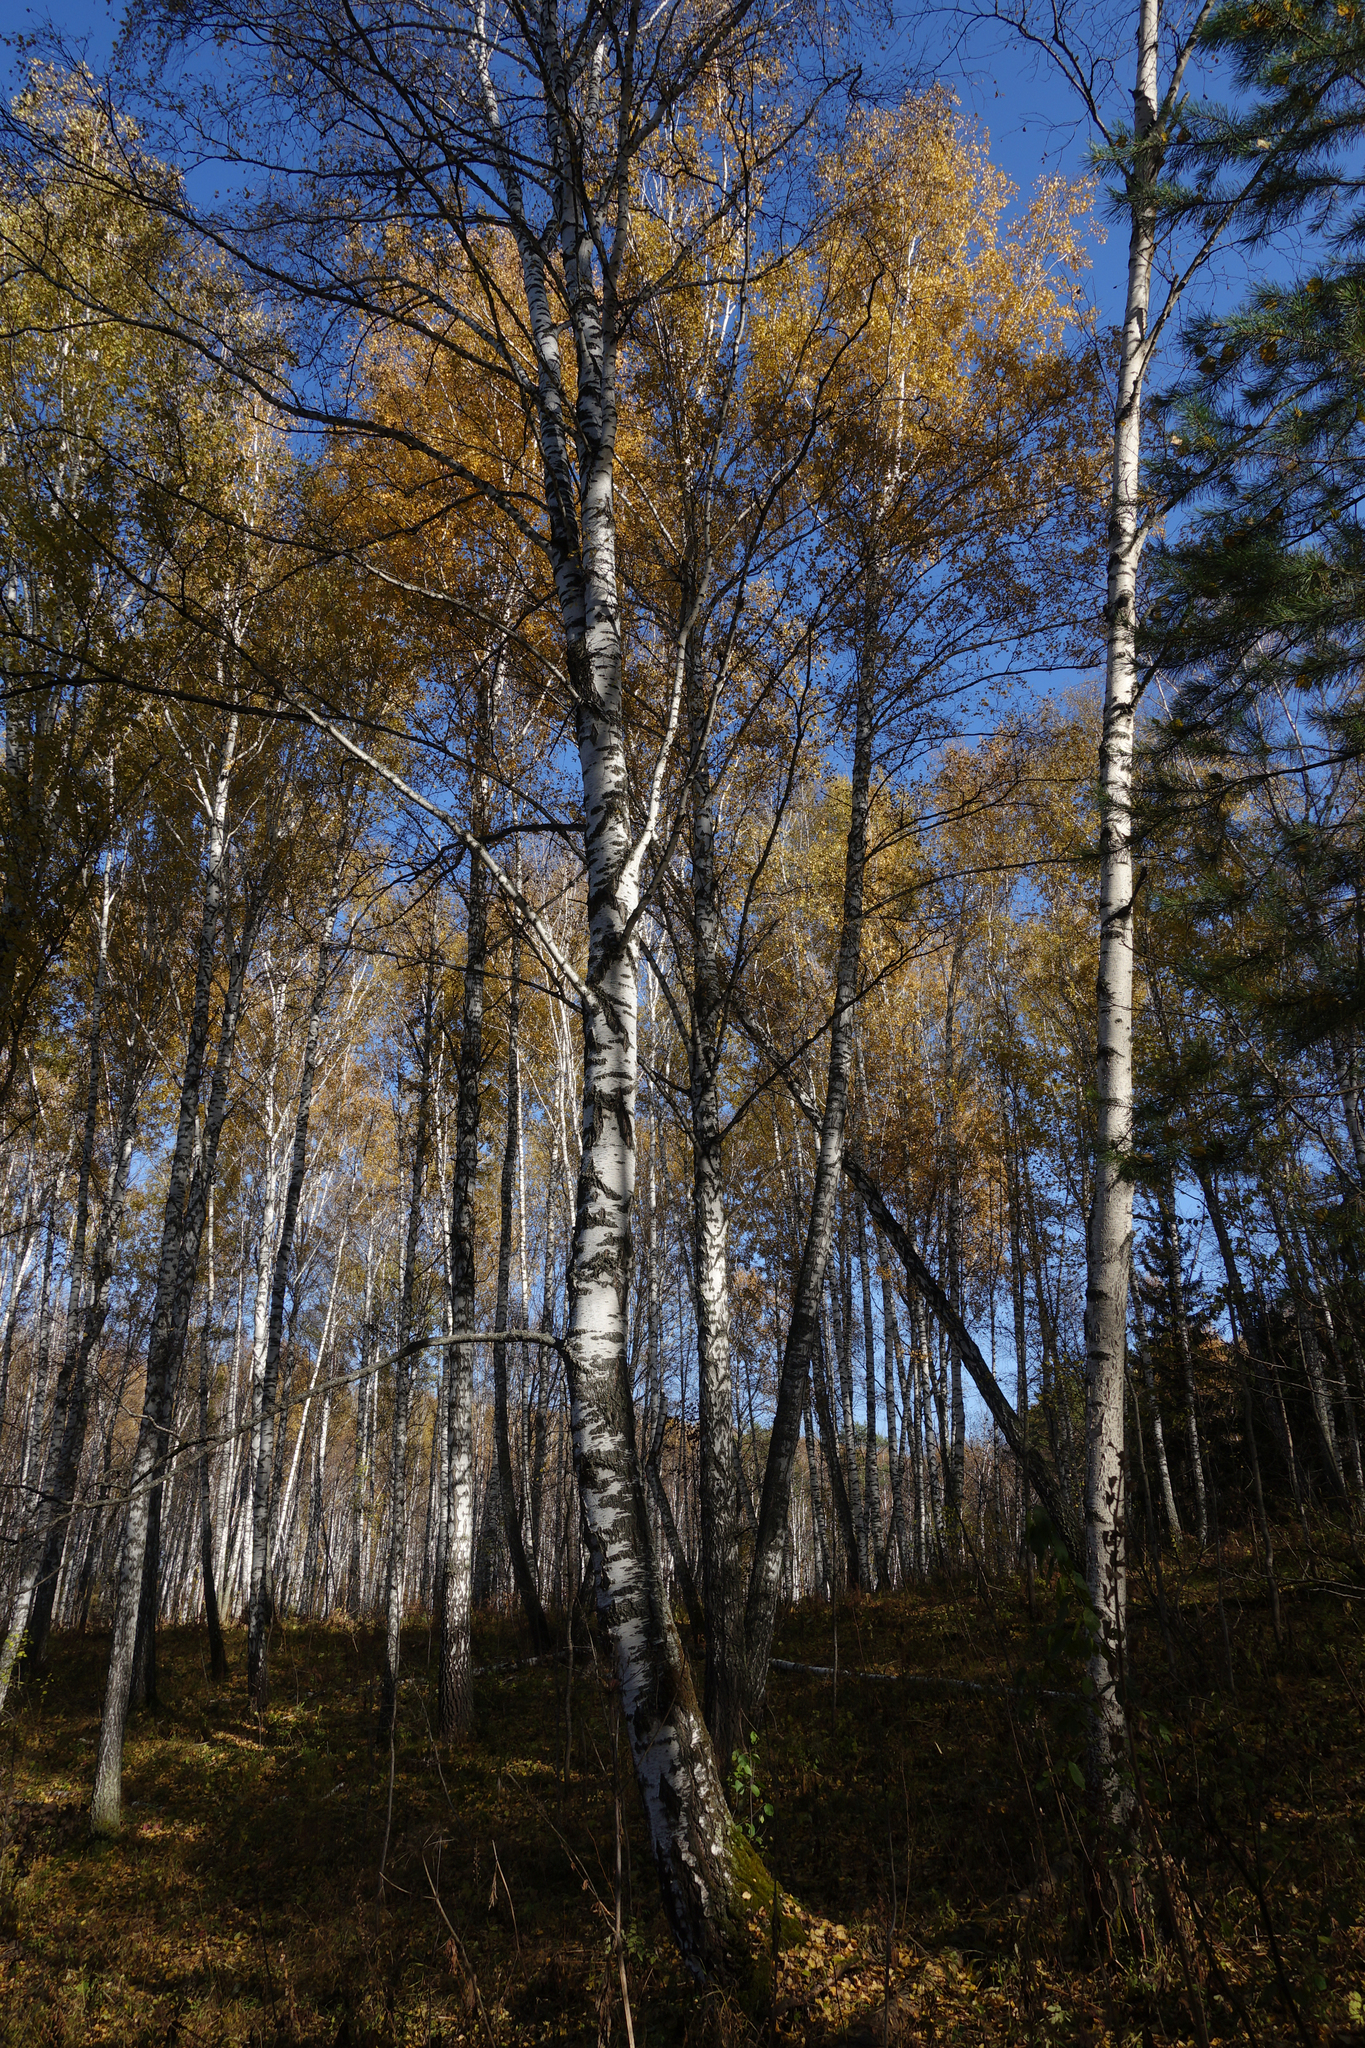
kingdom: Plantae
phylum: Tracheophyta
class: Magnoliopsida
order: Fagales
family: Betulaceae
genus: Betula
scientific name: Betula pendula
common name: Silver birch
